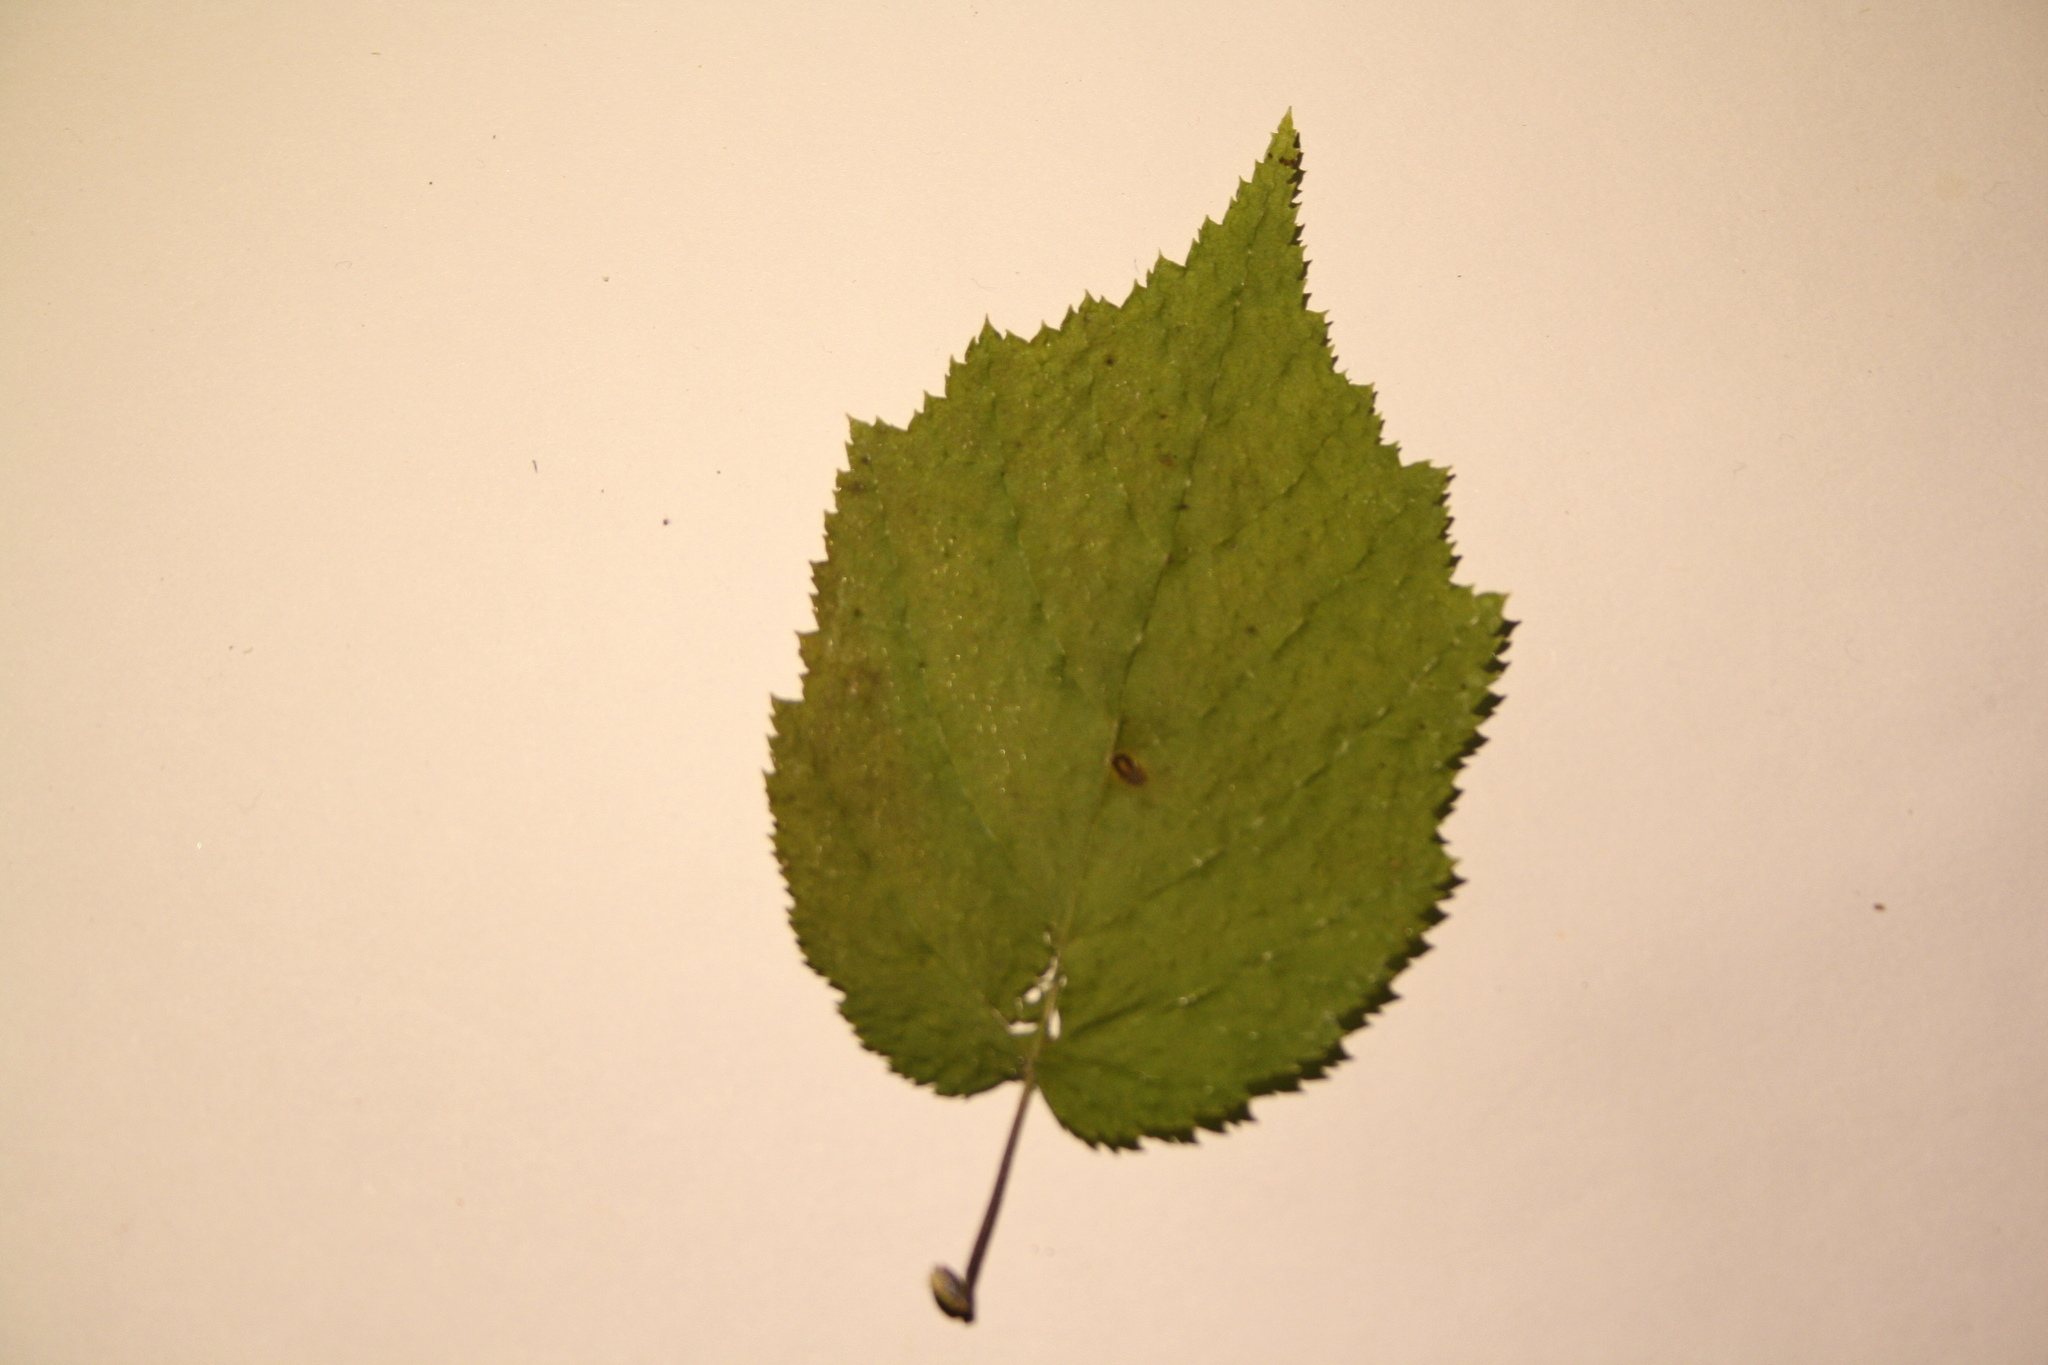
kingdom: Plantae
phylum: Tracheophyta
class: Magnoliopsida
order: Fagales
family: Betulaceae
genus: Corylus
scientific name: Corylus cornuta
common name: Beaked hazel
